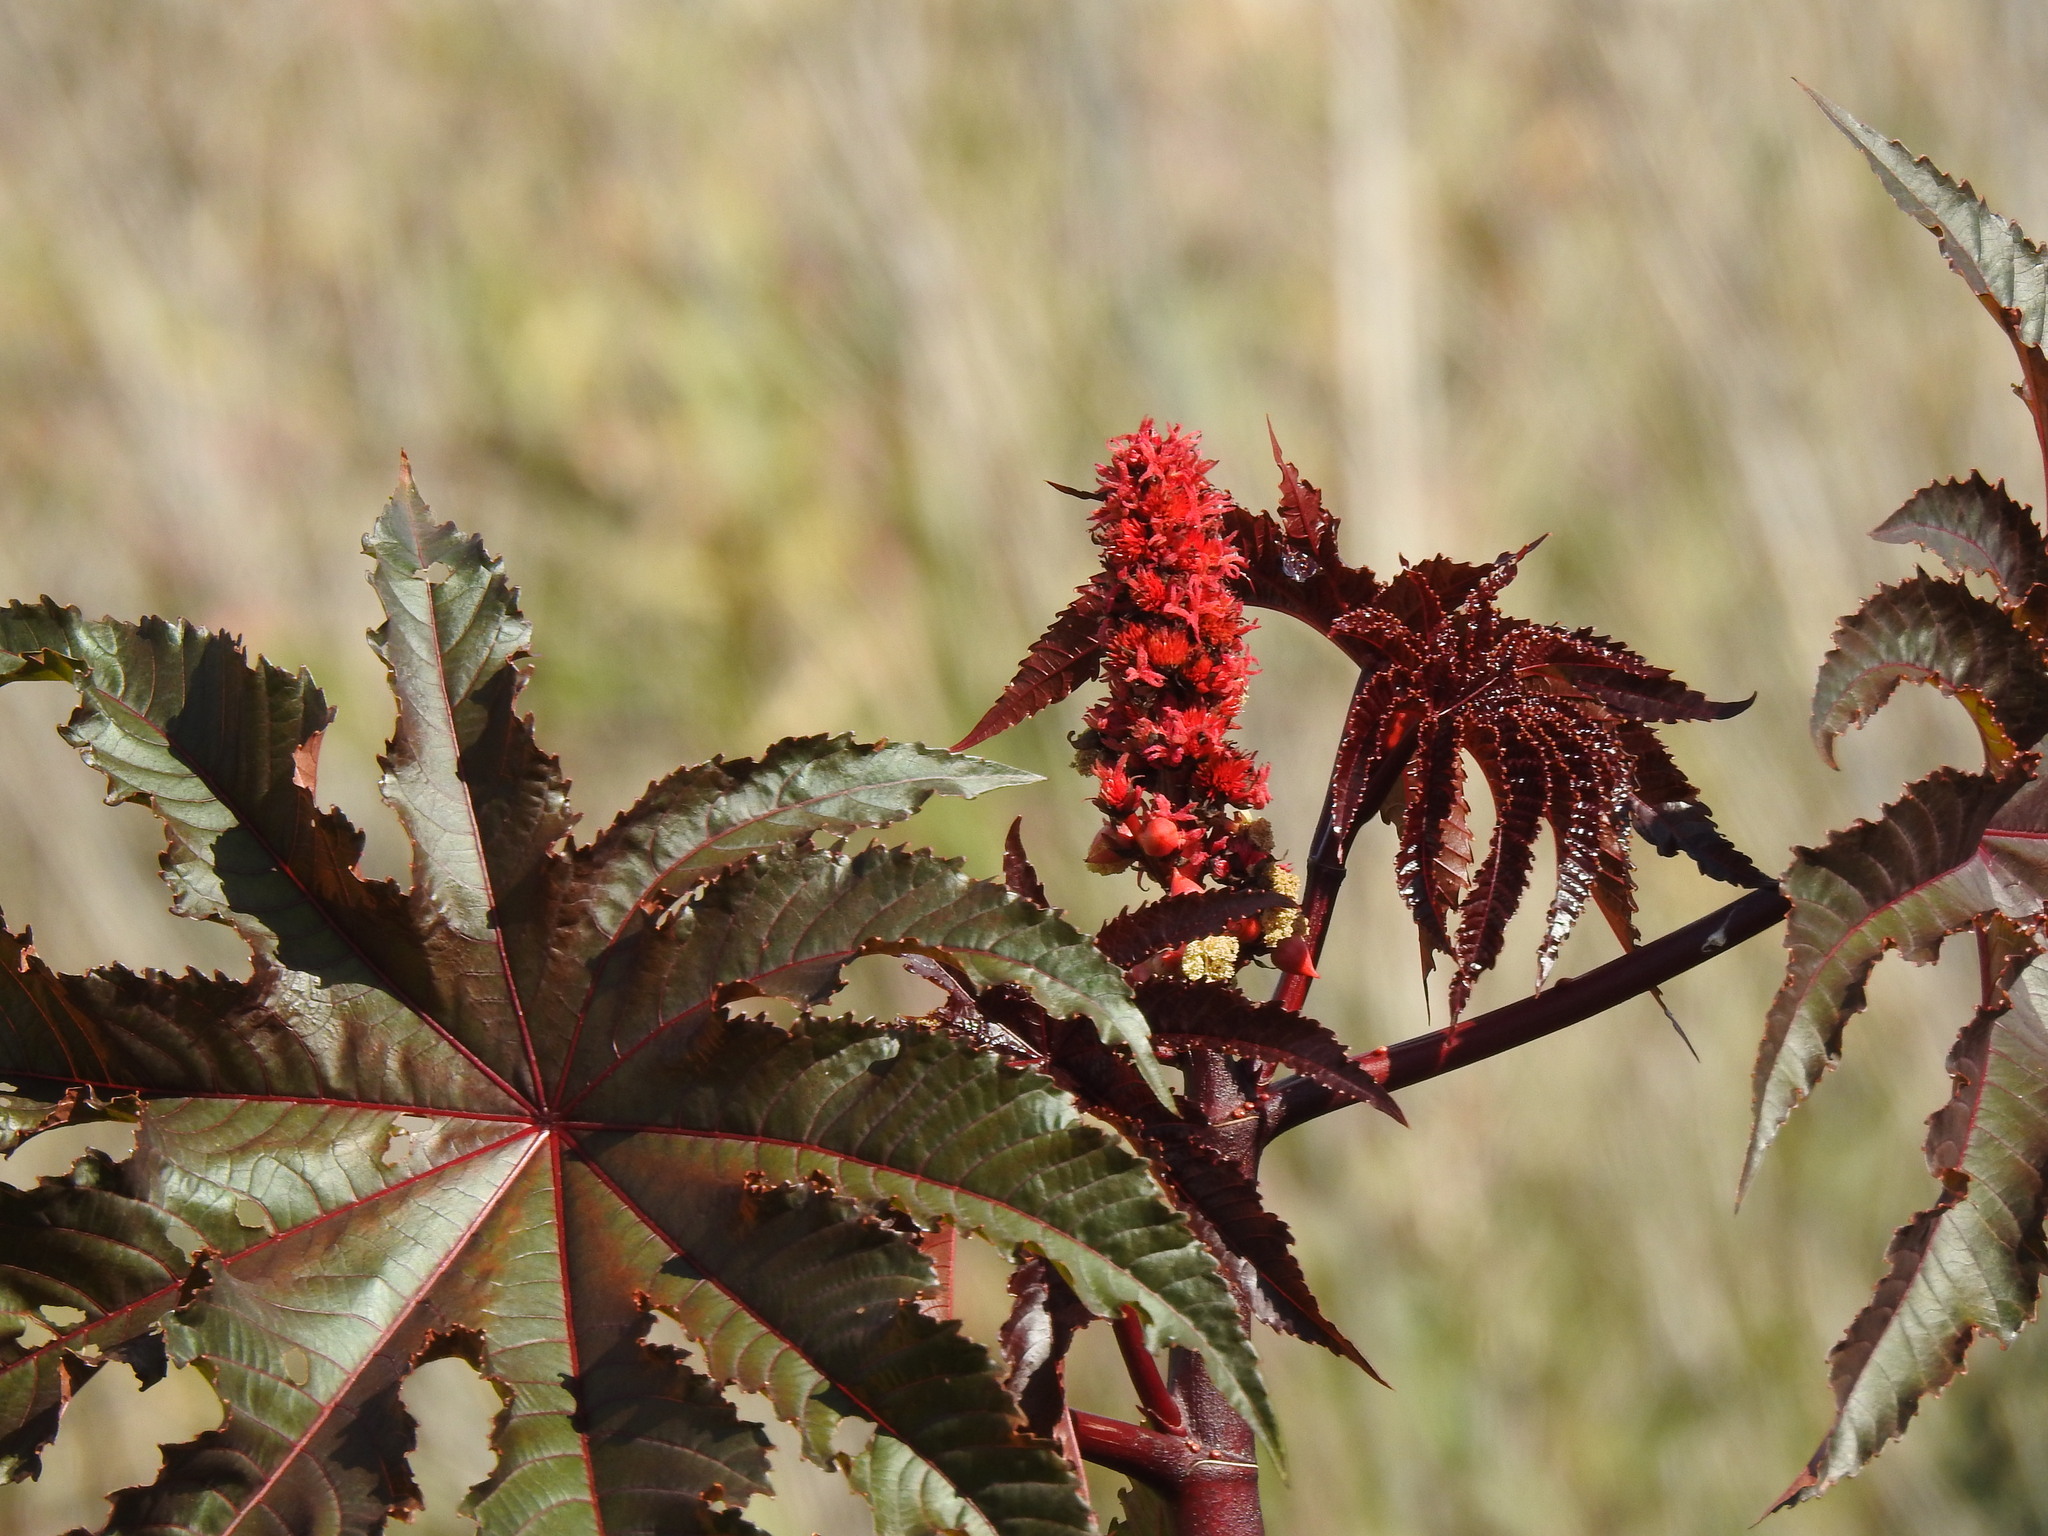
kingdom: Plantae
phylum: Tracheophyta
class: Magnoliopsida
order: Malpighiales
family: Euphorbiaceae
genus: Ricinus
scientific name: Ricinus communis
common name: Castor-oil-plant
